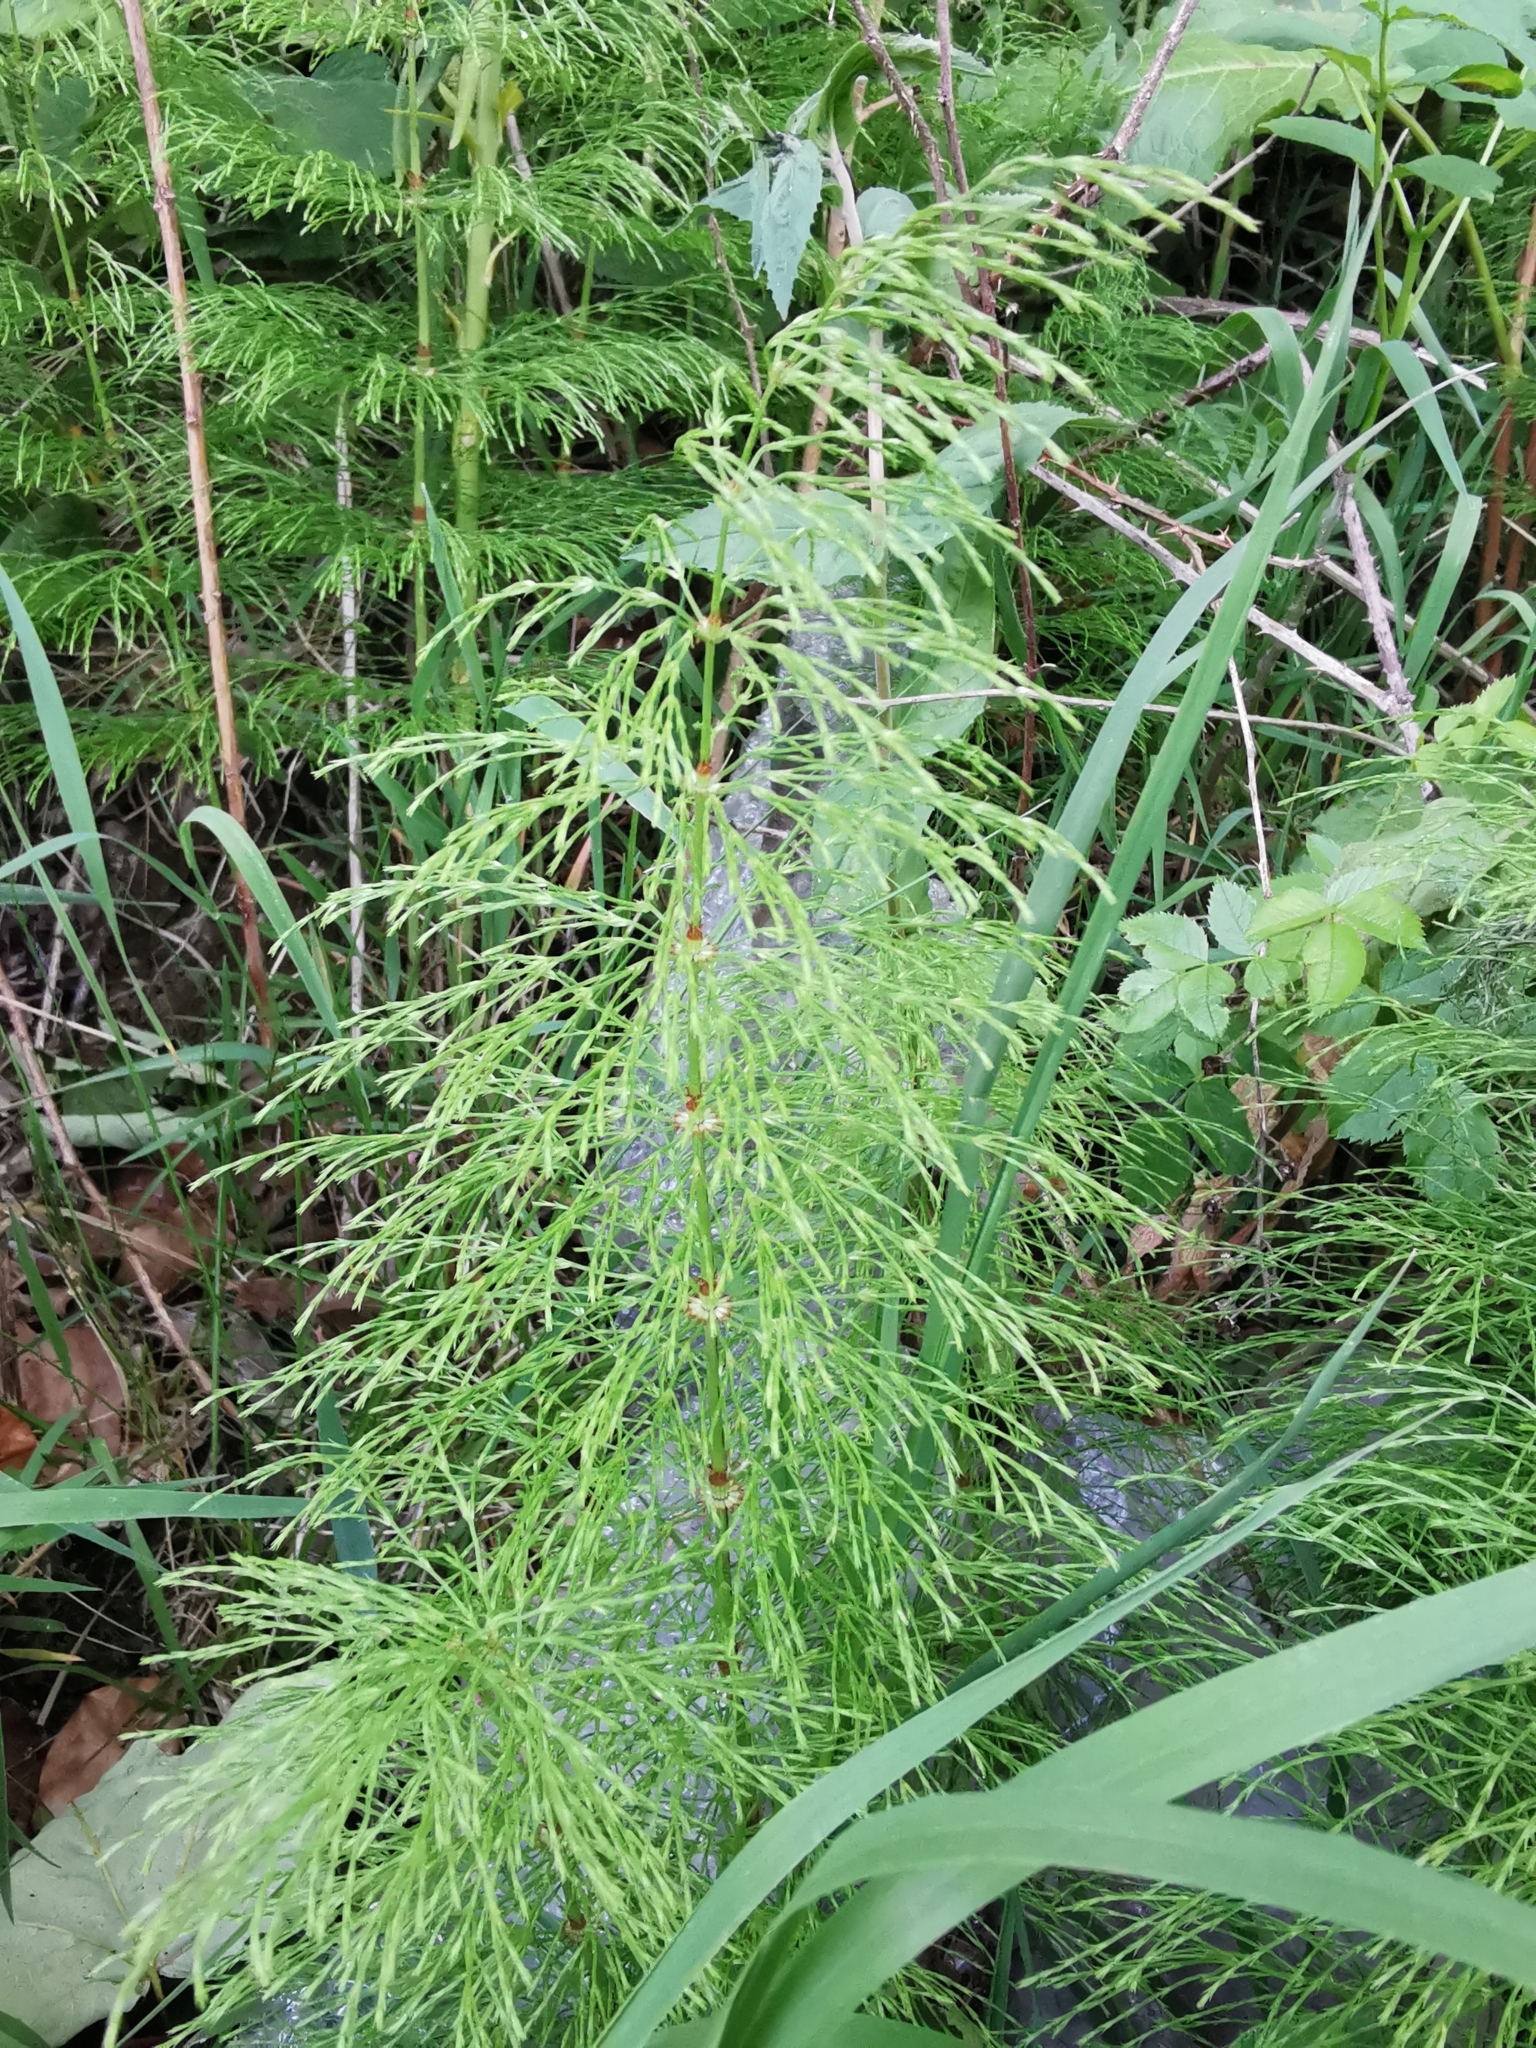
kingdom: Plantae
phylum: Tracheophyta
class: Polypodiopsida
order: Equisetales
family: Equisetaceae
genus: Equisetum
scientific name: Equisetum sylvaticum
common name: Wood horsetail
